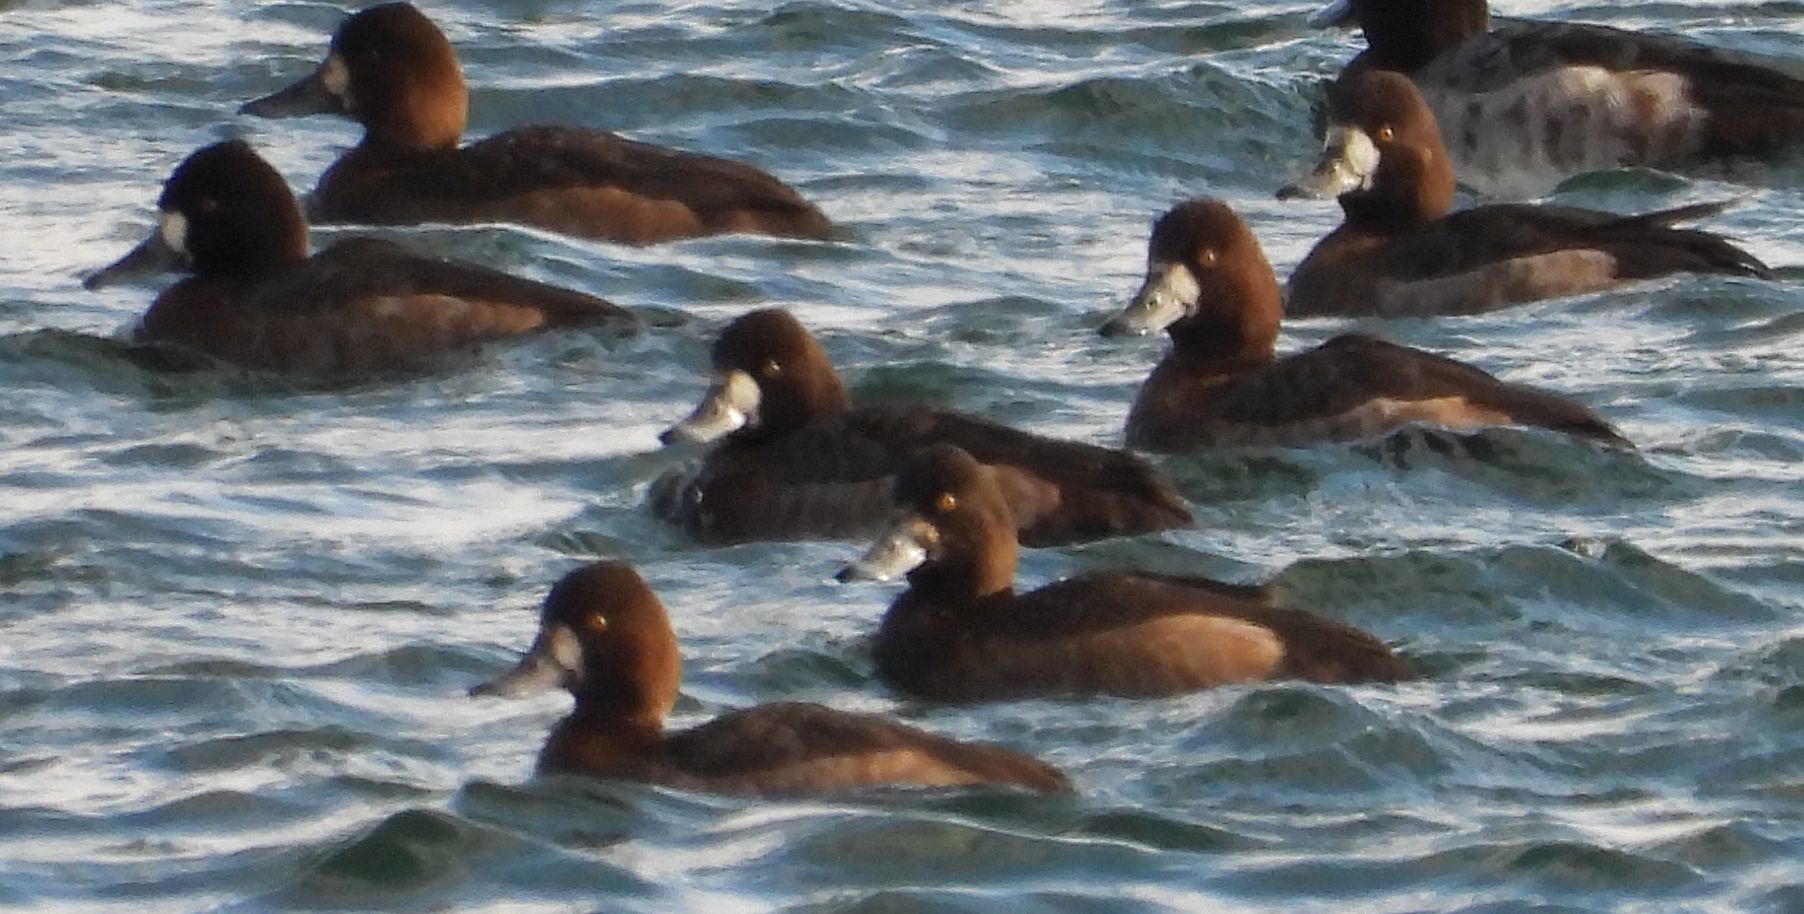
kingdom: Animalia
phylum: Chordata
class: Aves
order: Anseriformes
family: Anatidae
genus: Aythya
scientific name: Aythya affinis
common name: Lesser scaup
